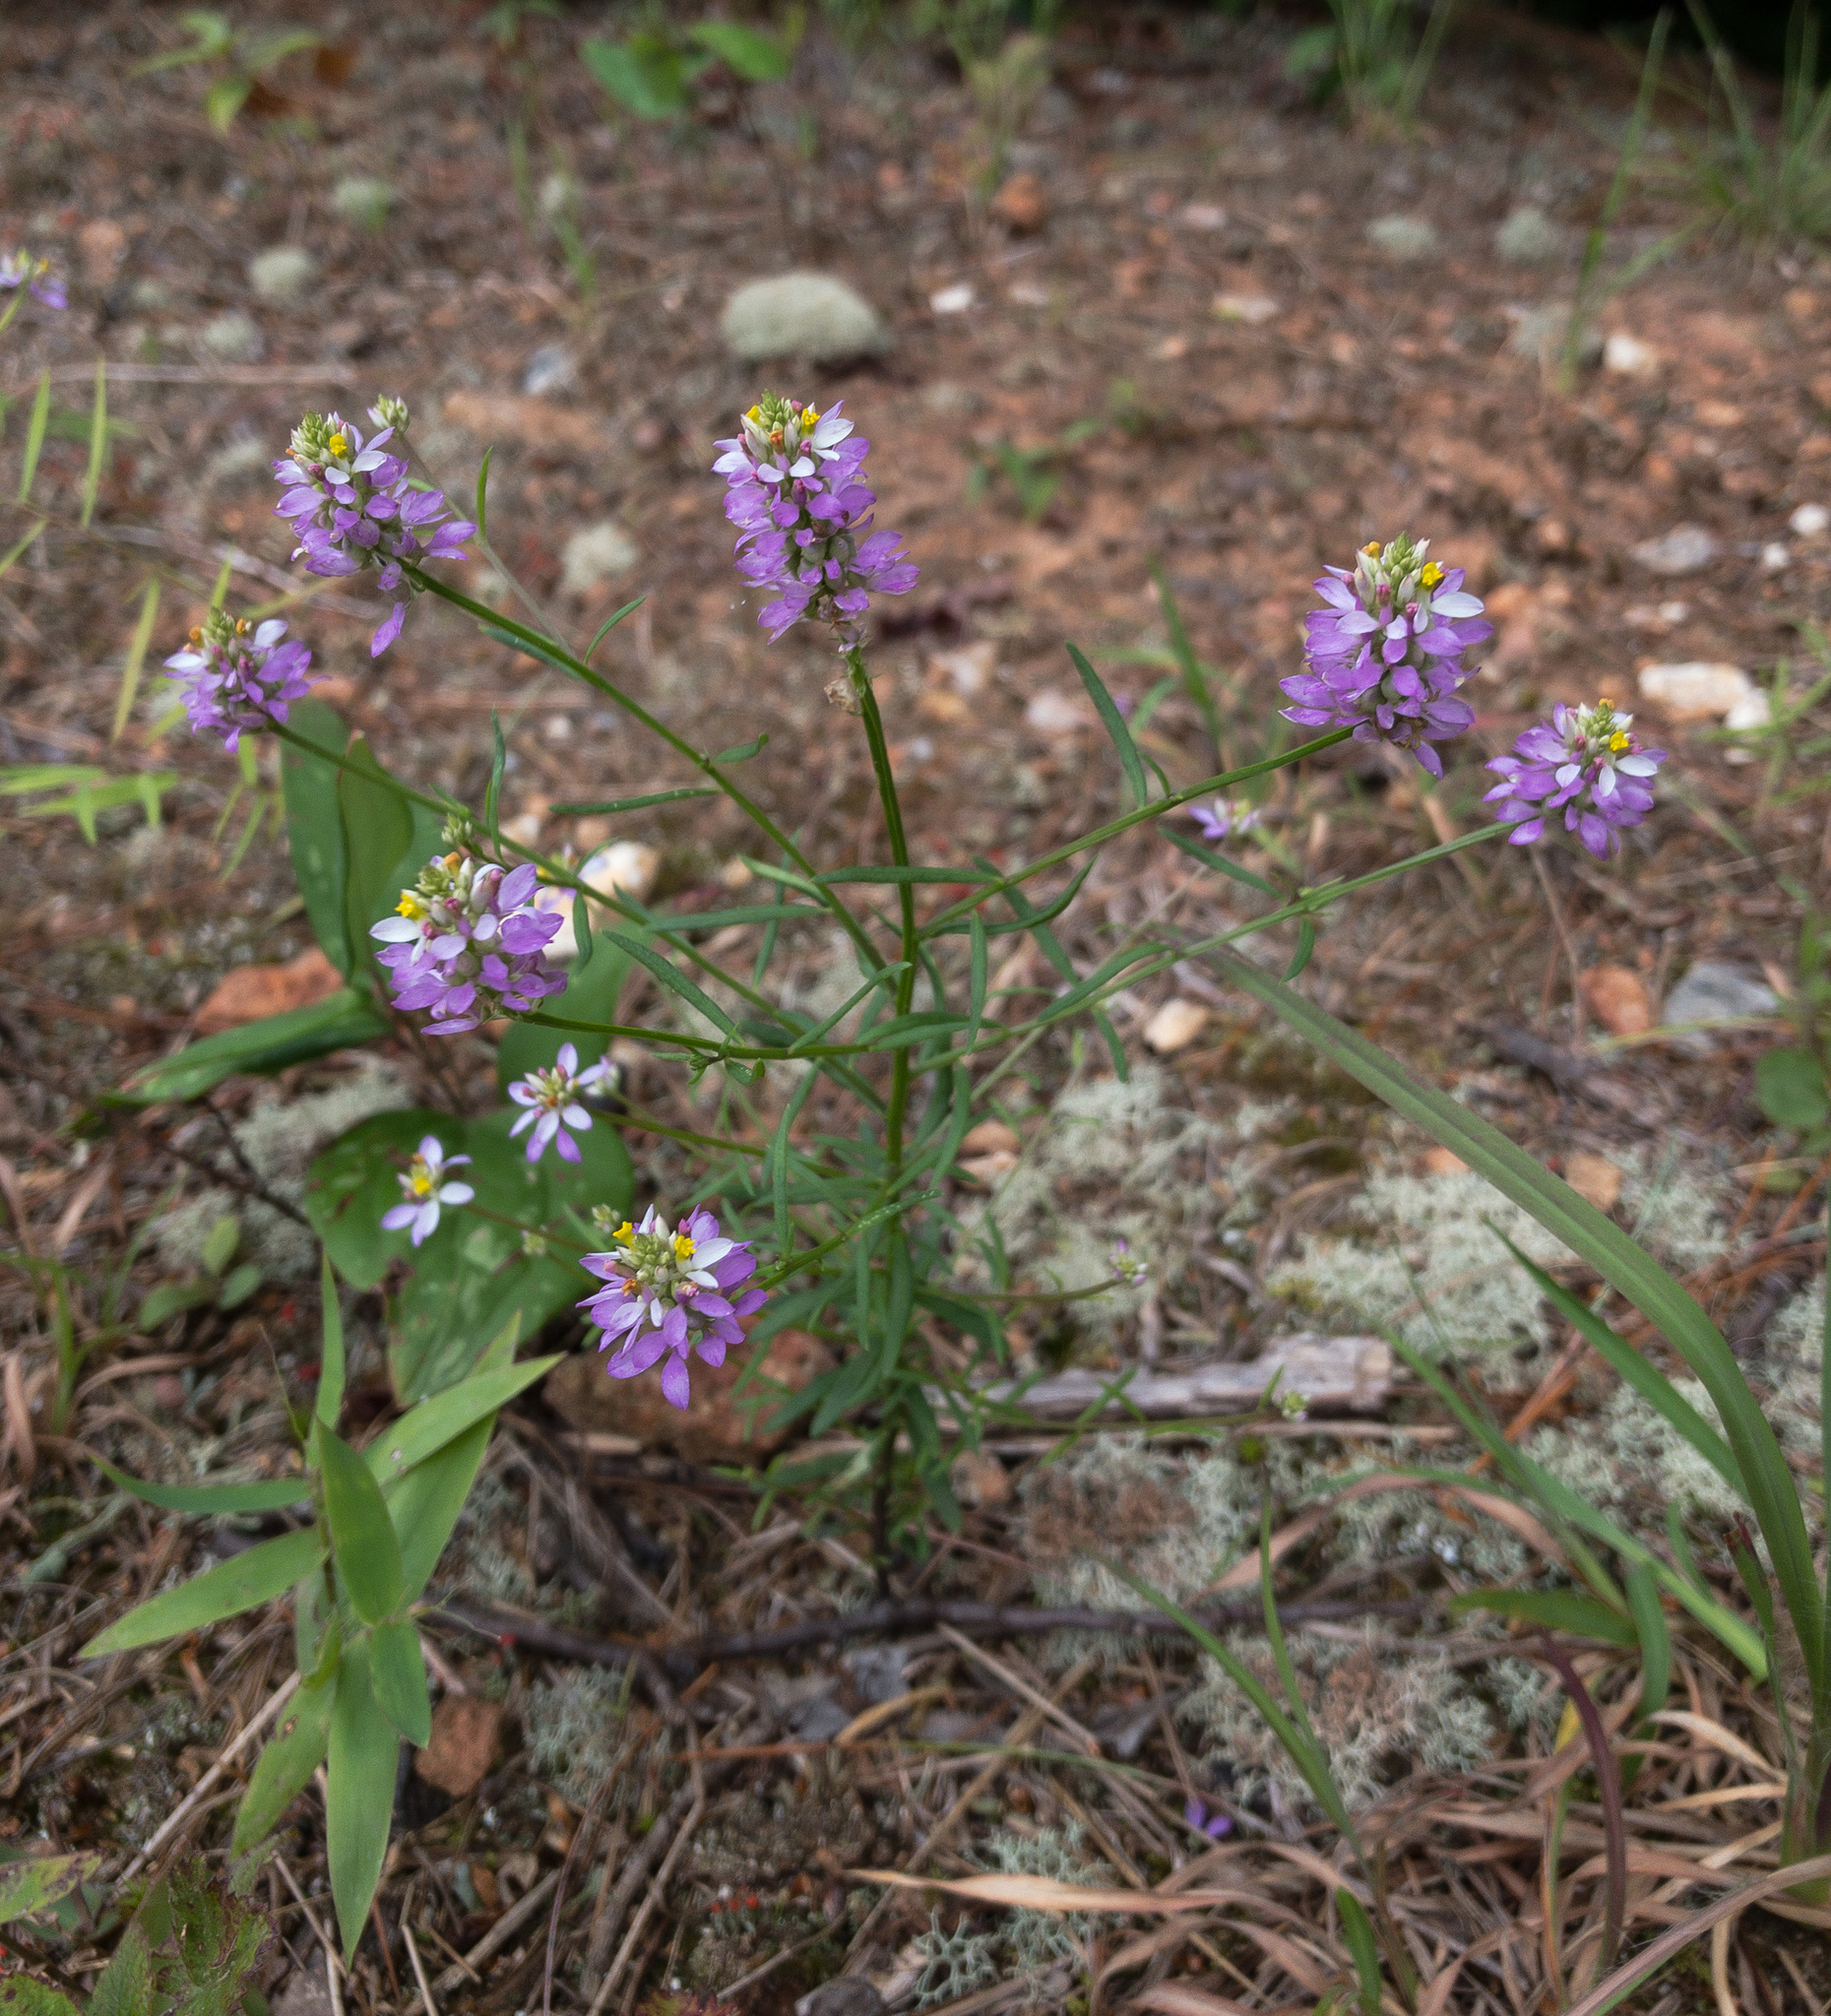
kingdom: Plantae
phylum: Tracheophyta
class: Magnoliopsida
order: Fabales
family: Polygalaceae
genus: Polygala
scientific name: Polygala curtissii
